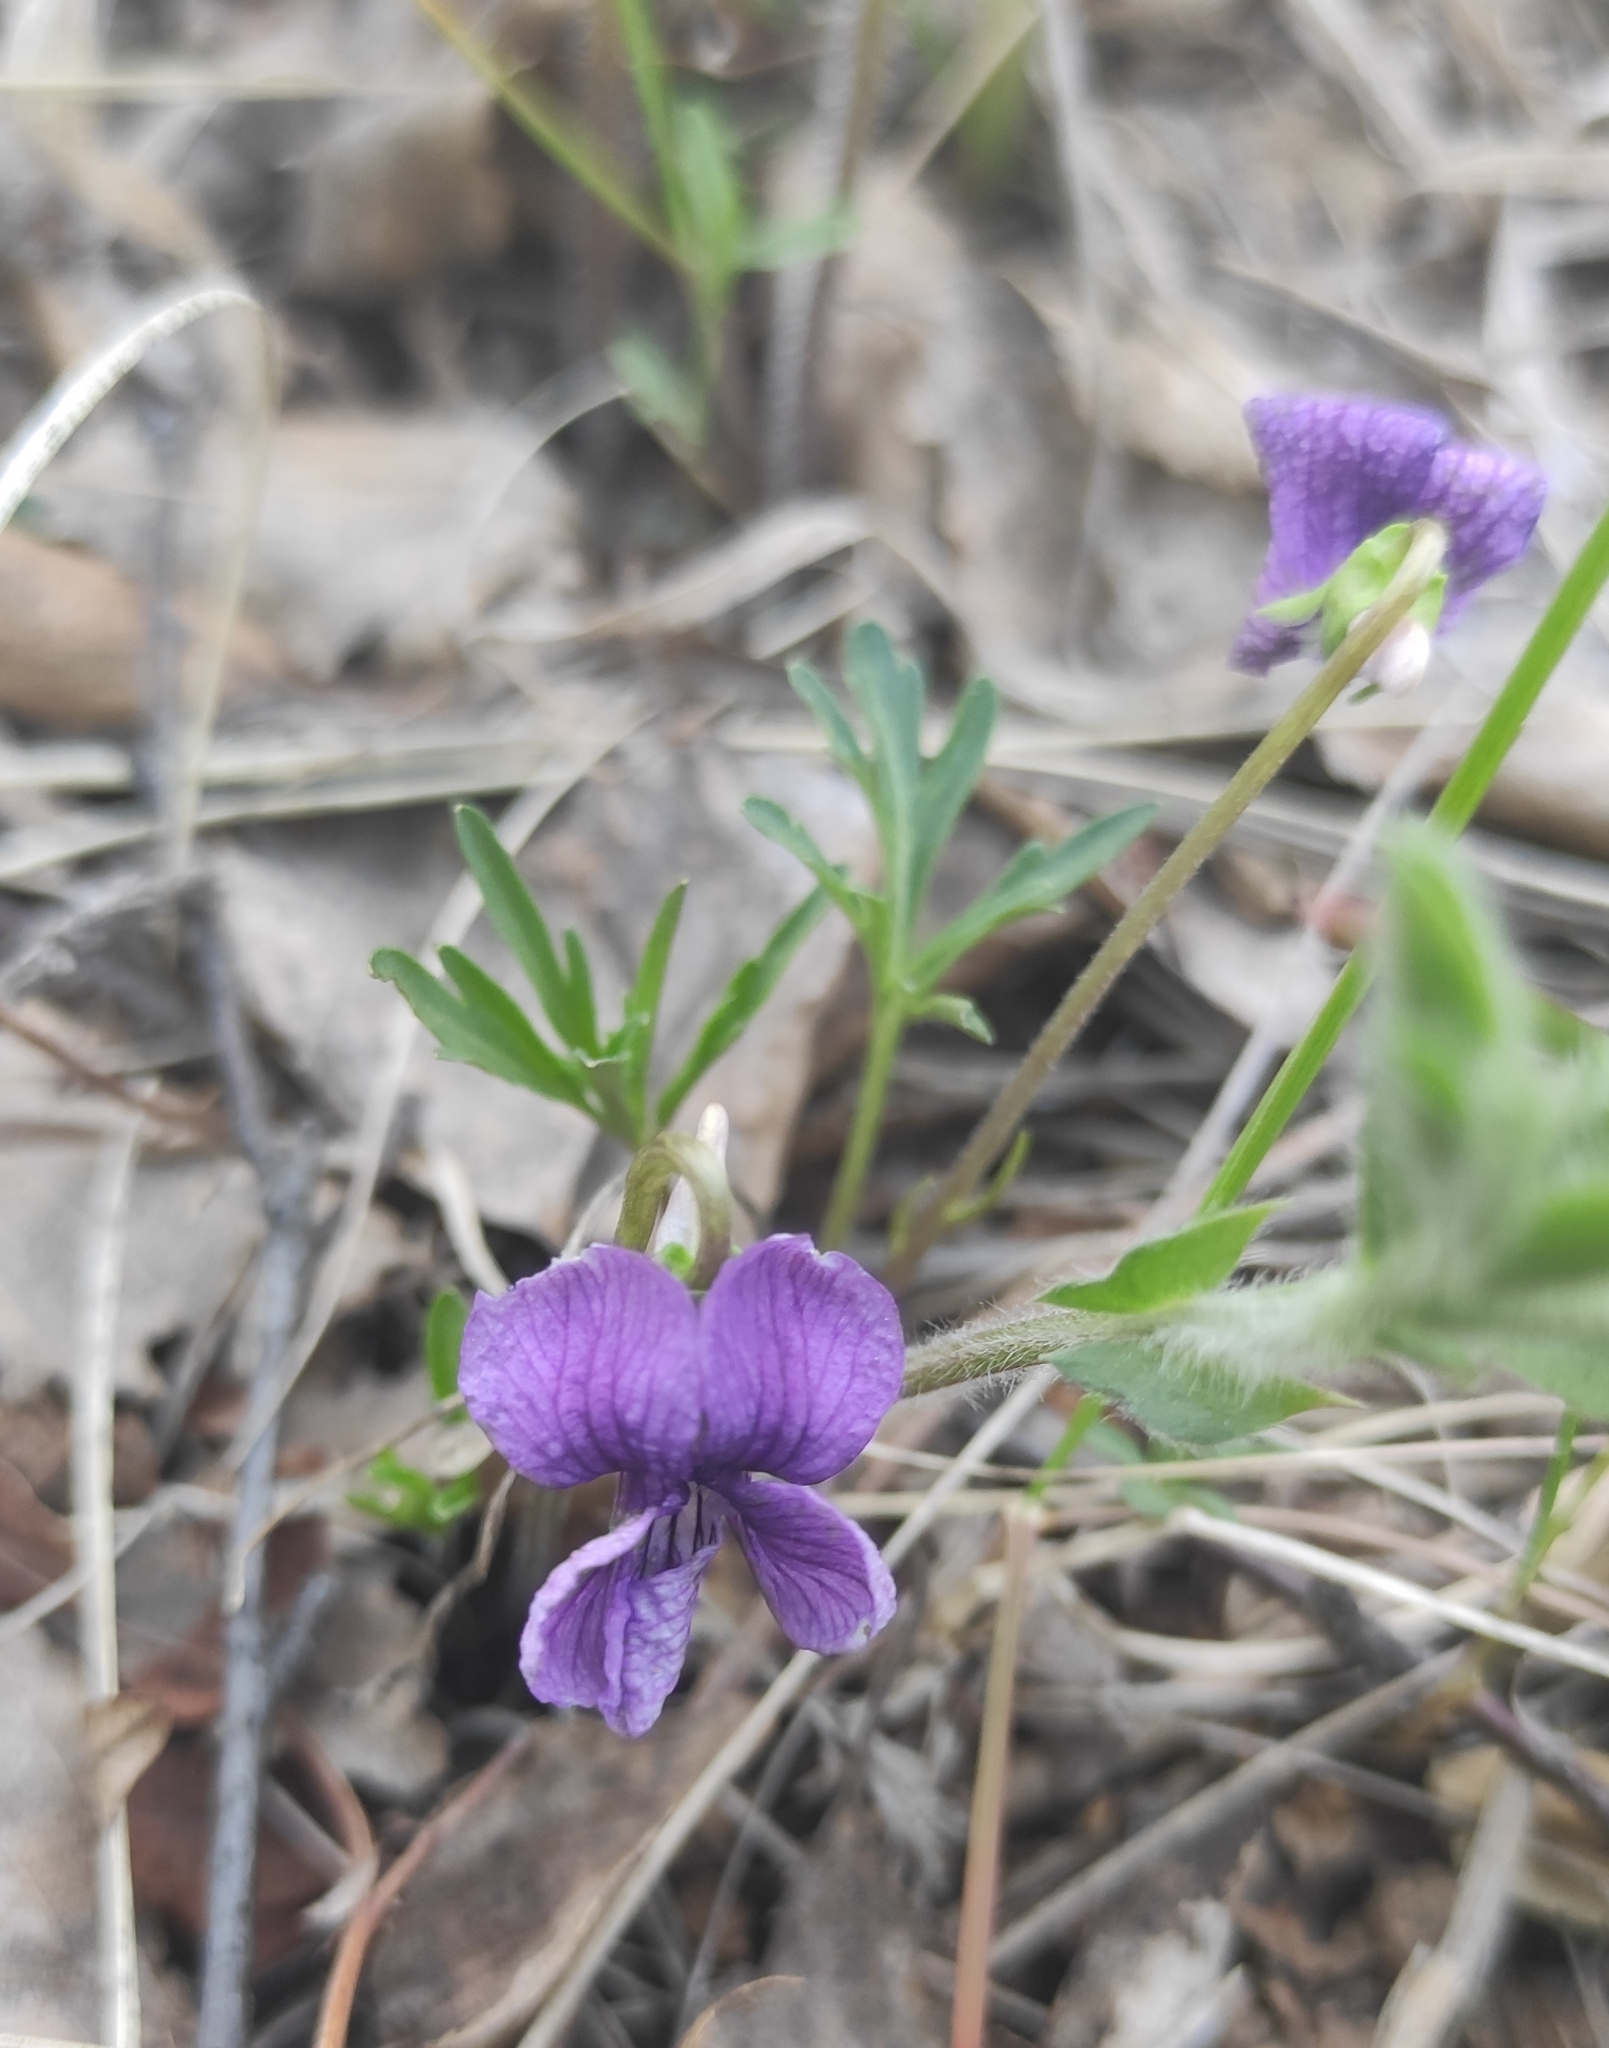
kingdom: Plantae
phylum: Tracheophyta
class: Magnoliopsida
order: Malpighiales
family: Violaceae
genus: Viola
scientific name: Viola multifida
